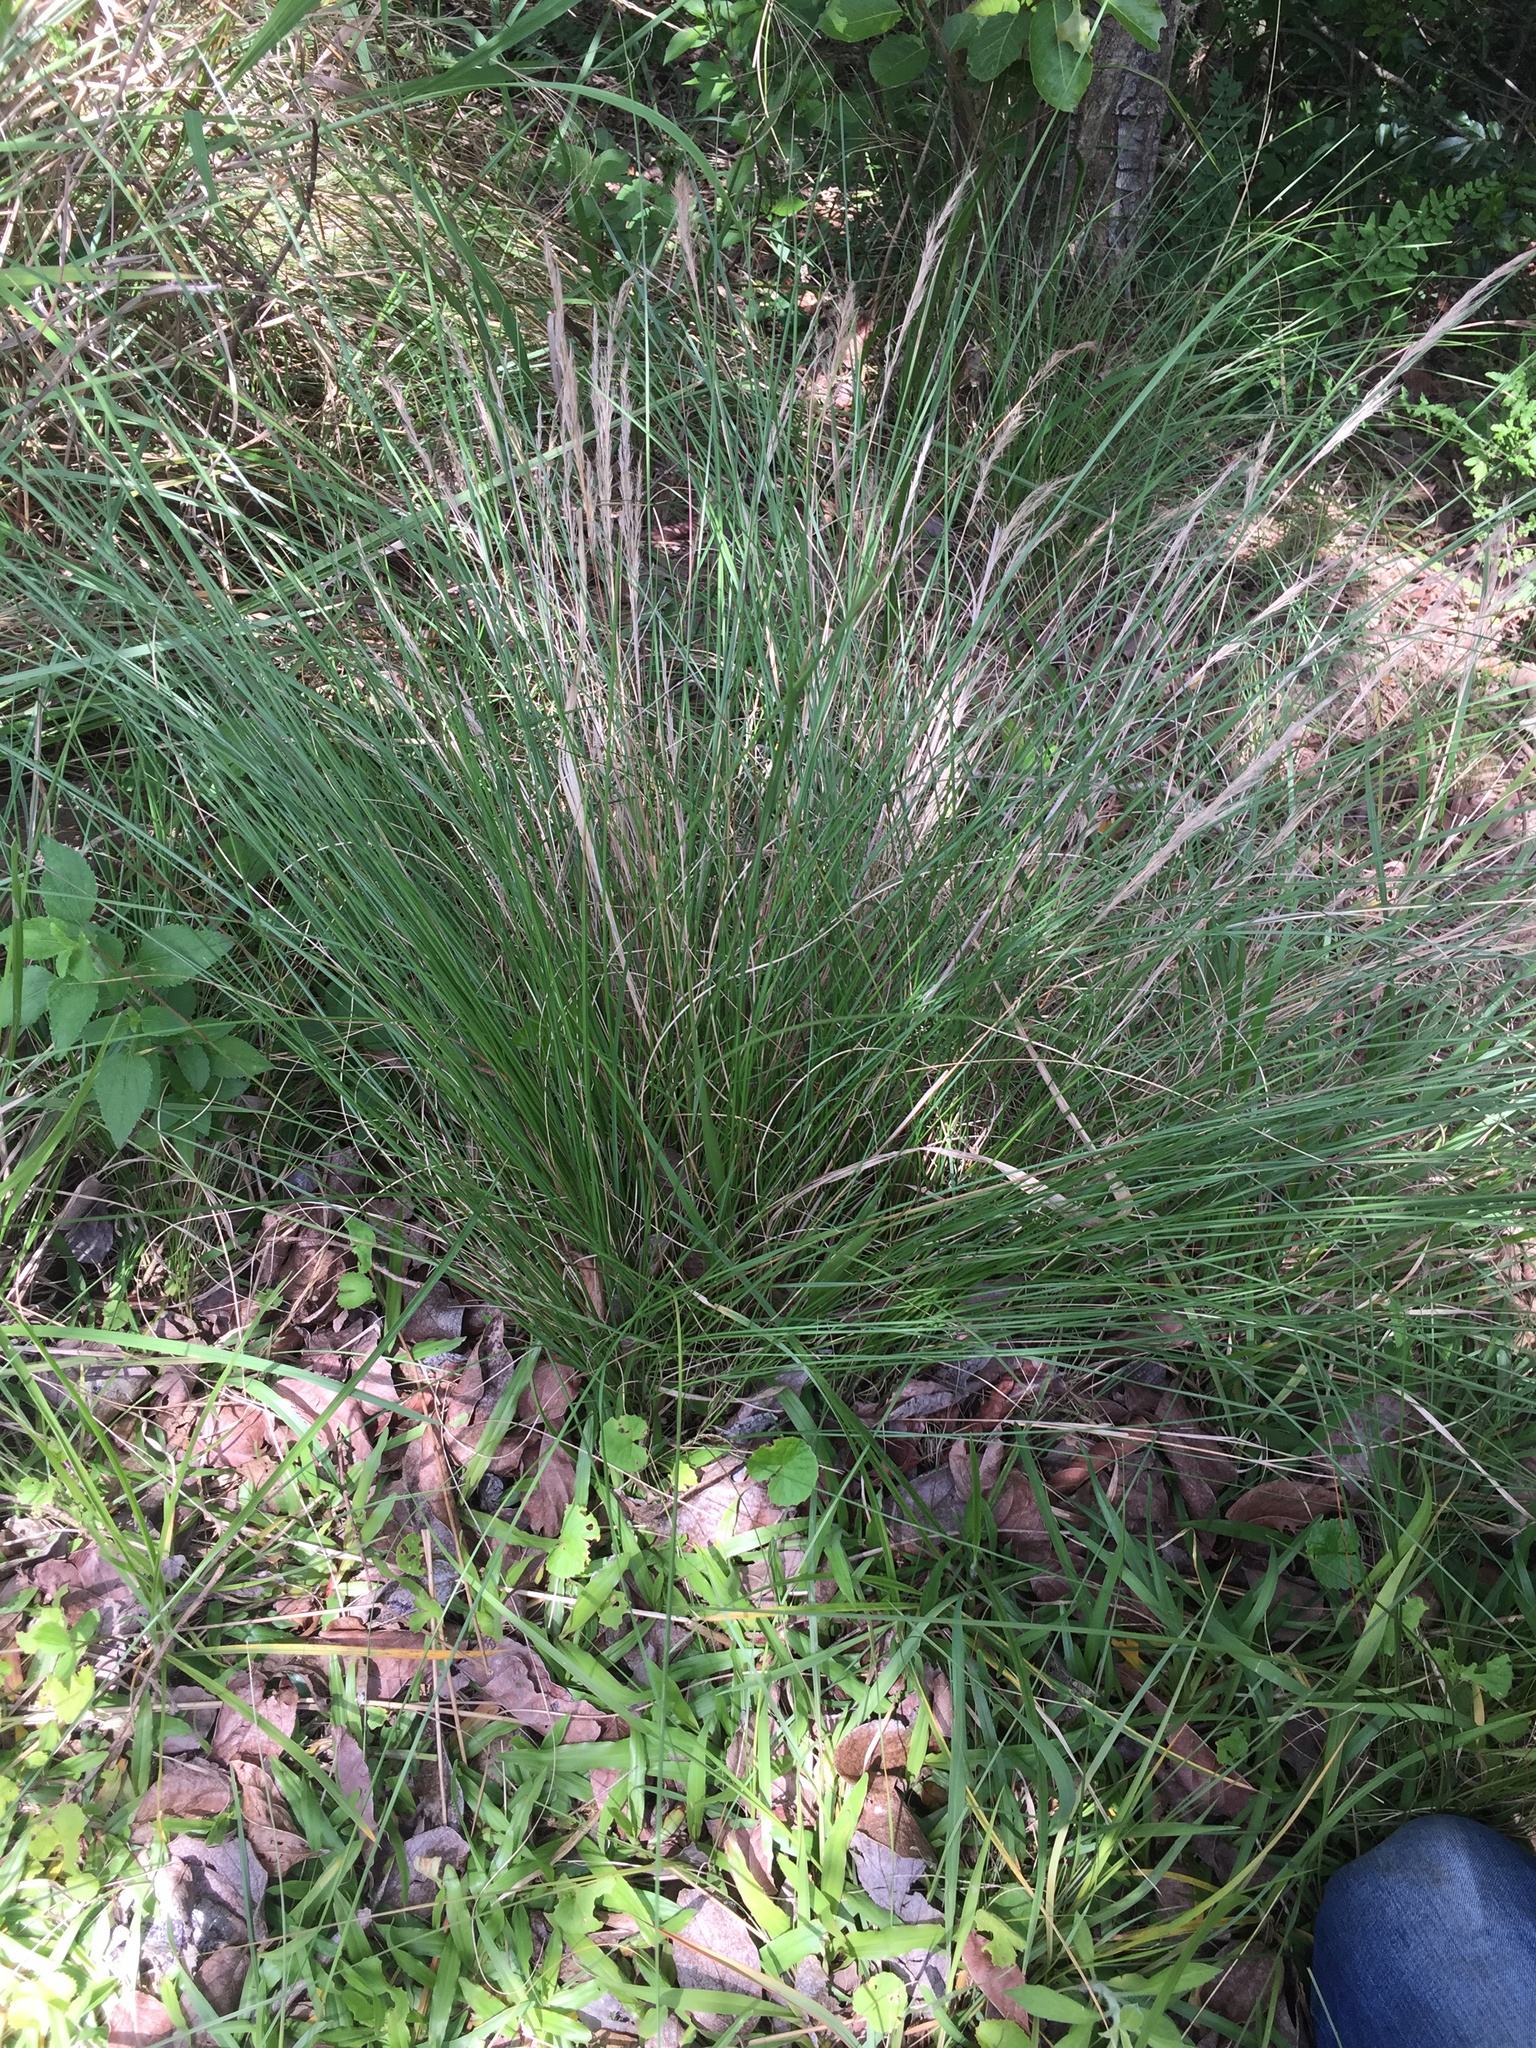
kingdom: Plantae
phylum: Tracheophyta
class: Liliopsida
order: Poales
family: Poaceae
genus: Aristida
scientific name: Aristida junciformis
